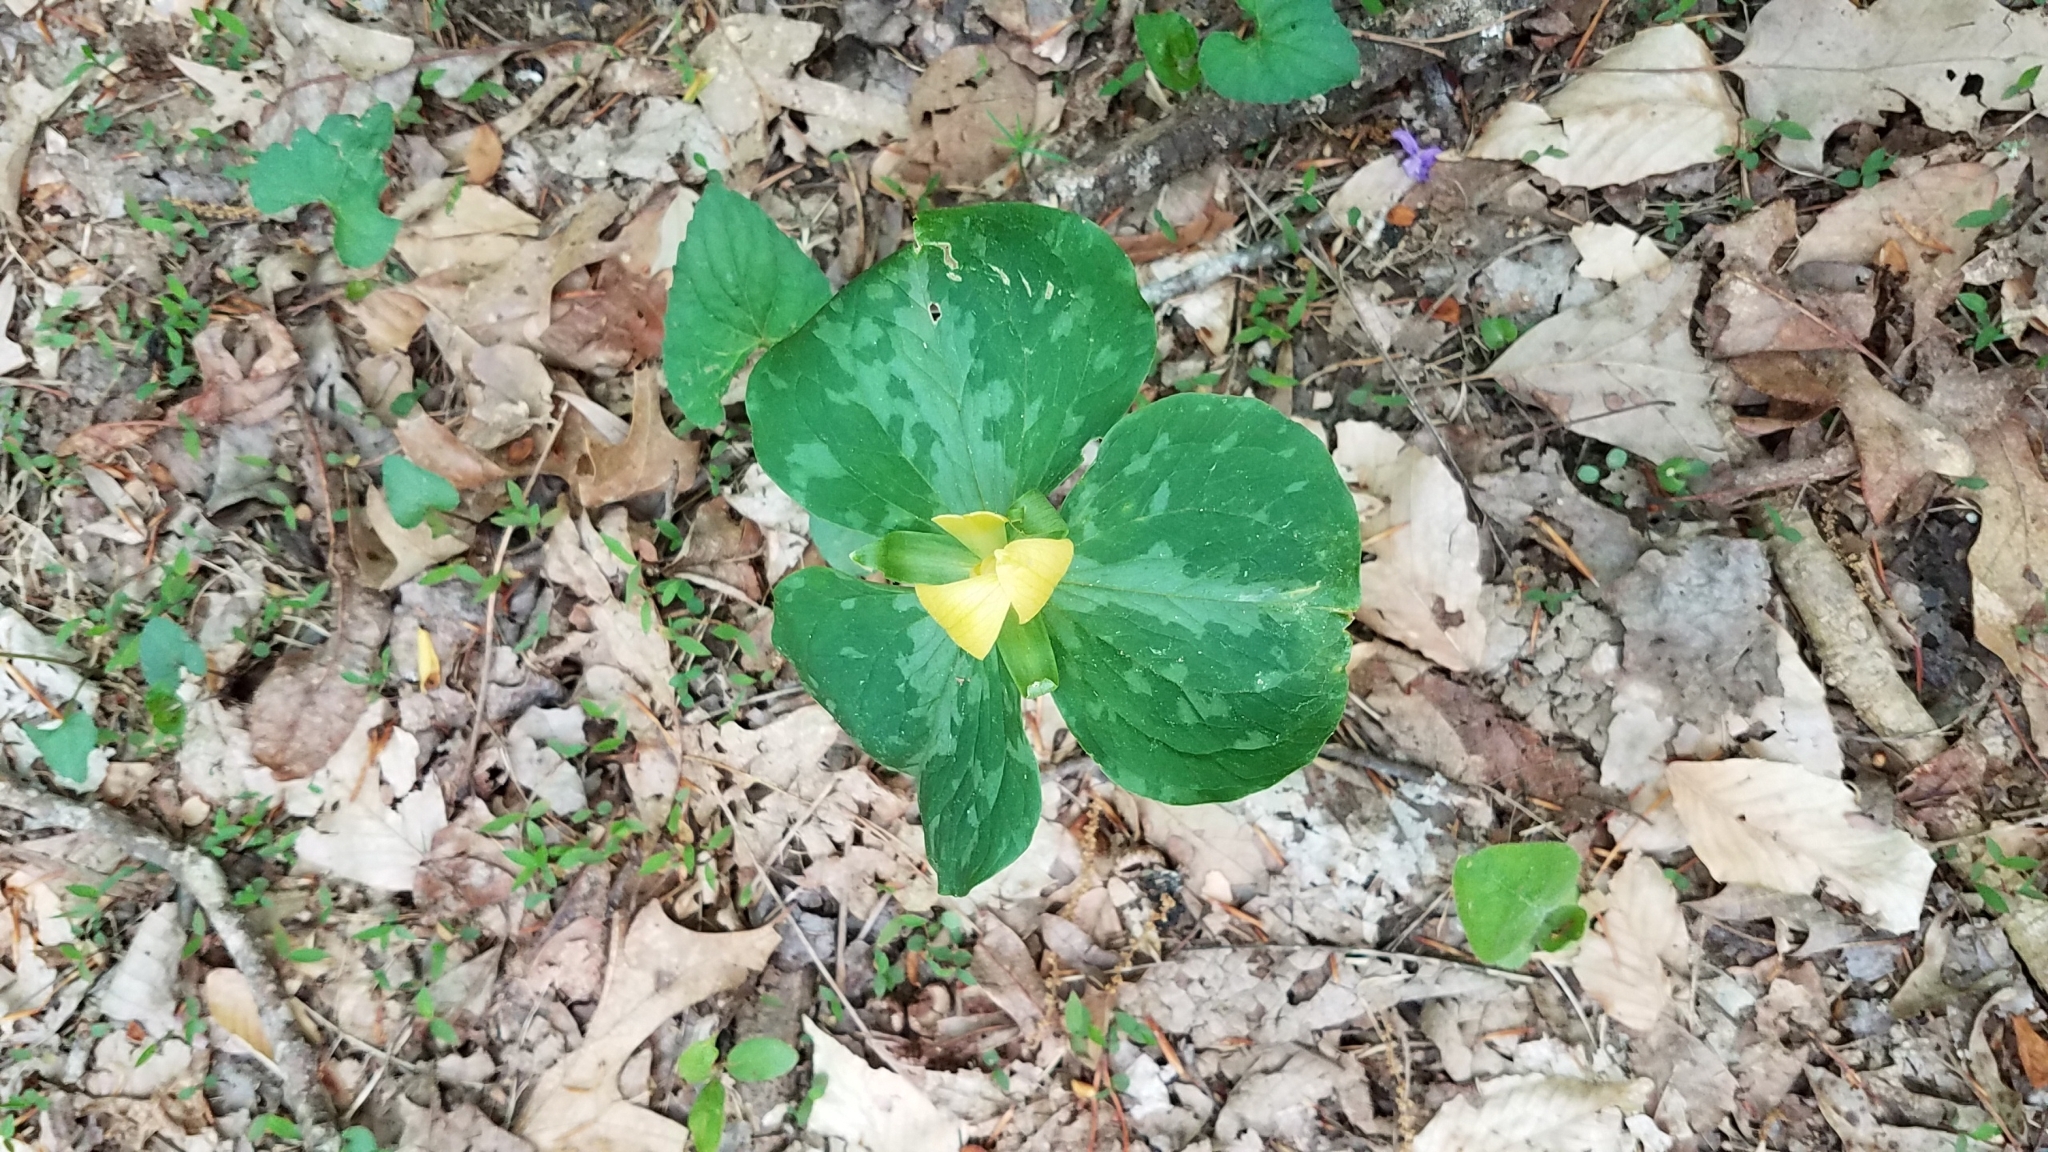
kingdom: Plantae
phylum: Tracheophyta
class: Liliopsida
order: Liliales
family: Melanthiaceae
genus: Trillium
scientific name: Trillium luteum
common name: Wax trillium
